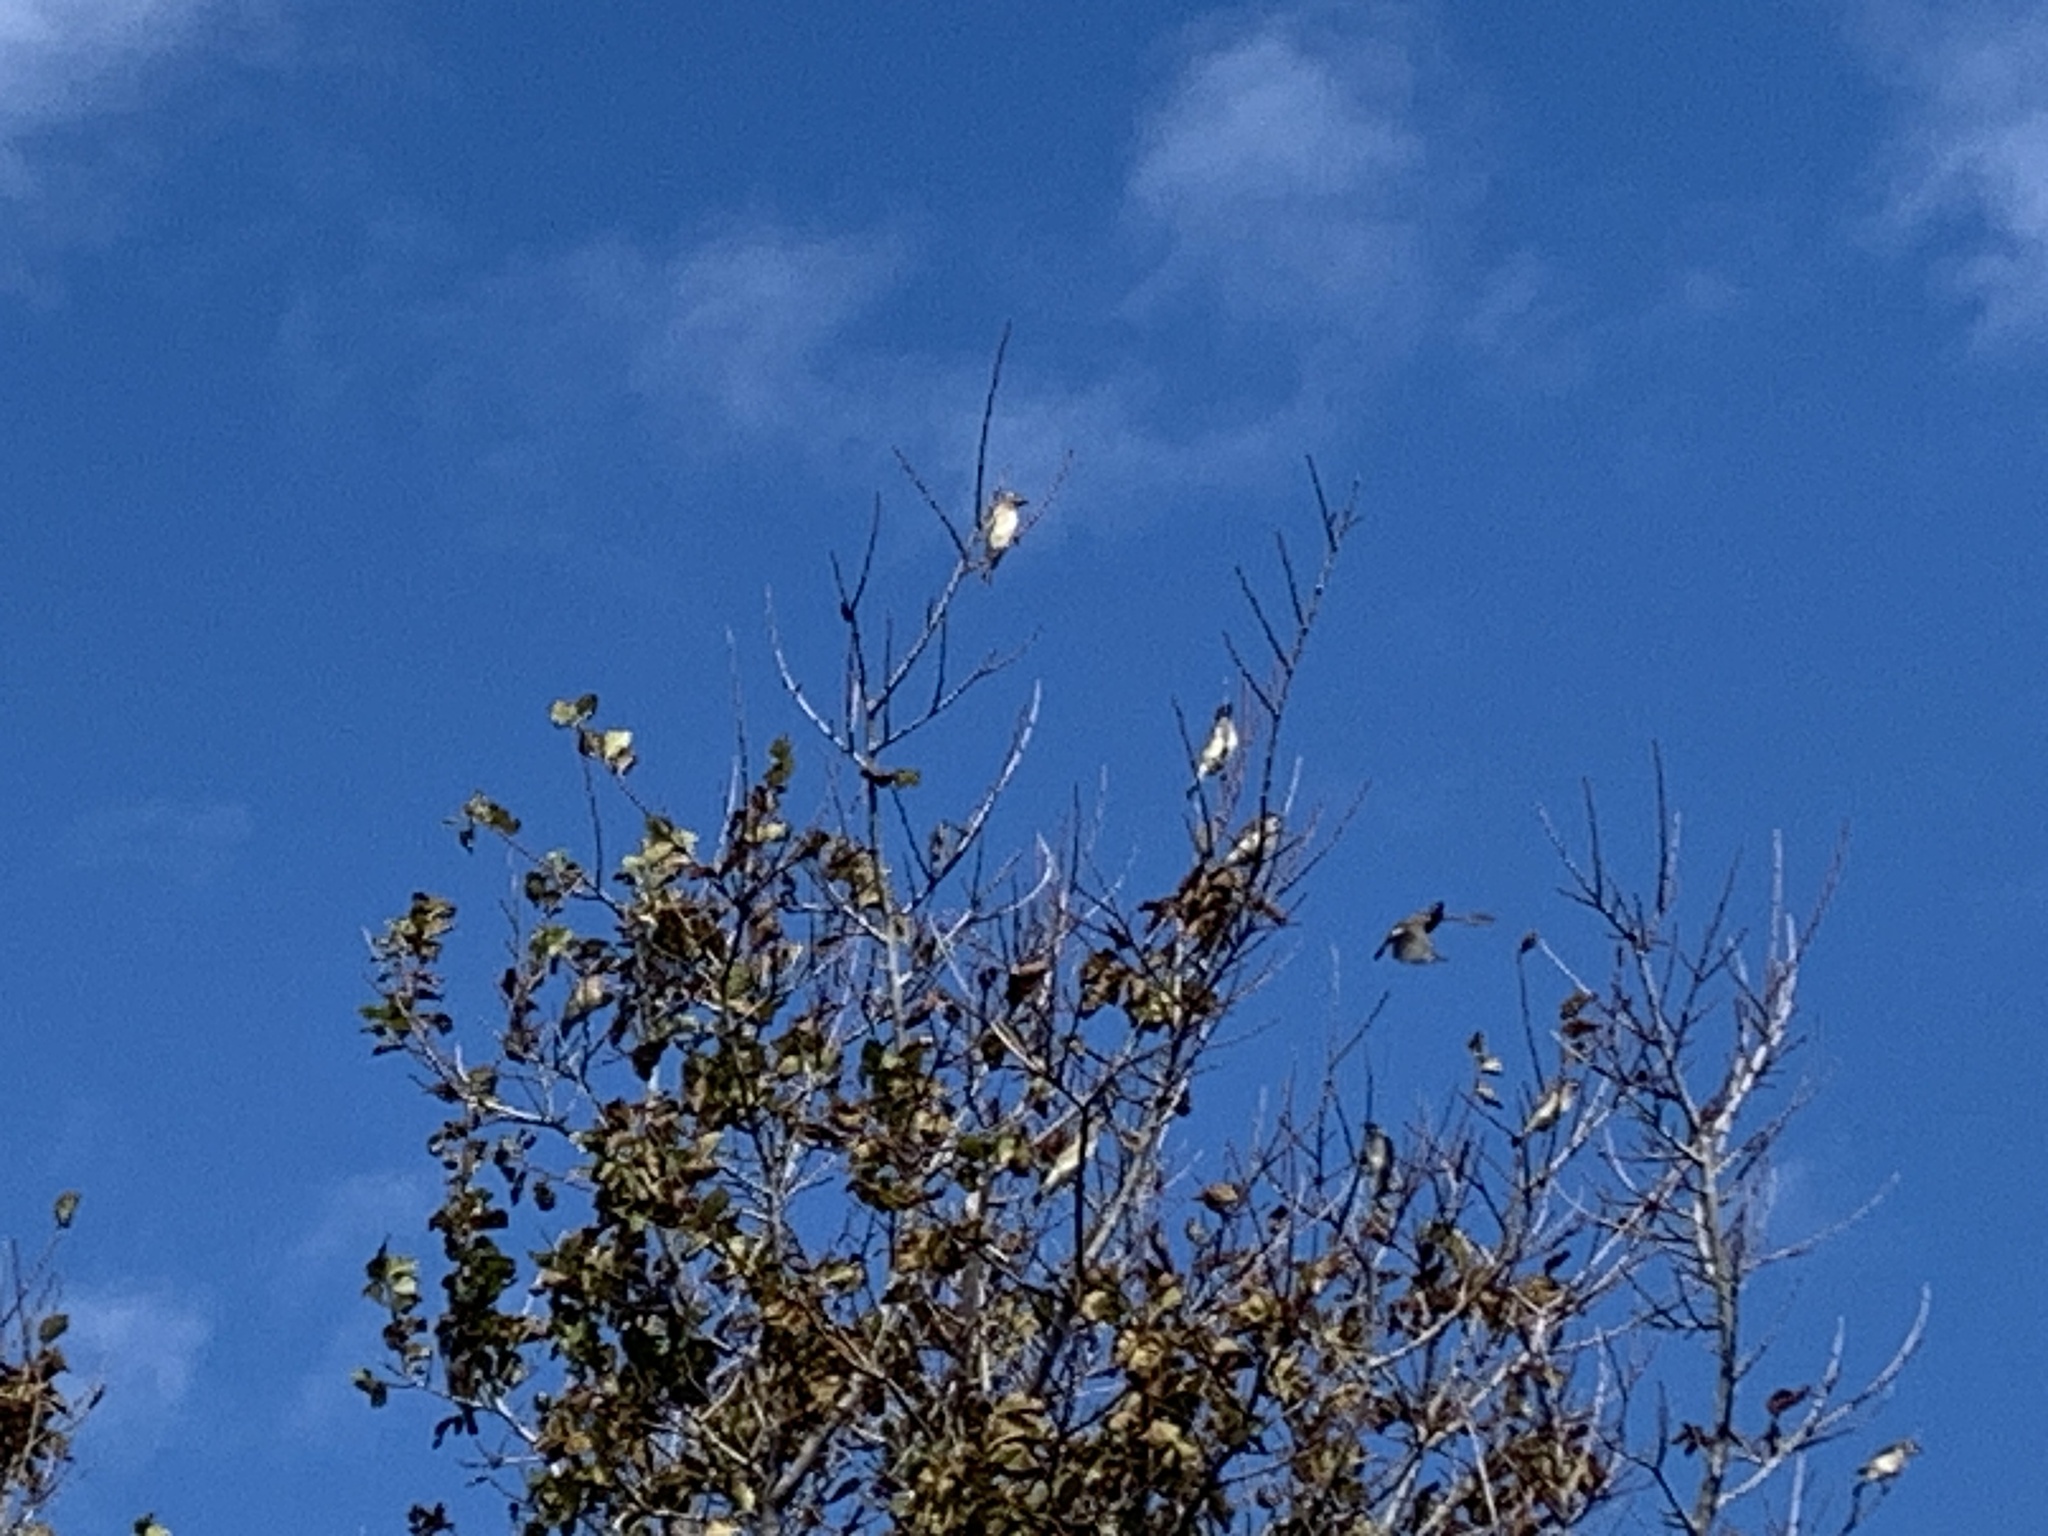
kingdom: Animalia
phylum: Chordata
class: Aves
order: Passeriformes
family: Bombycillidae
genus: Bombycilla
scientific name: Bombycilla cedrorum
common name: Cedar waxwing
